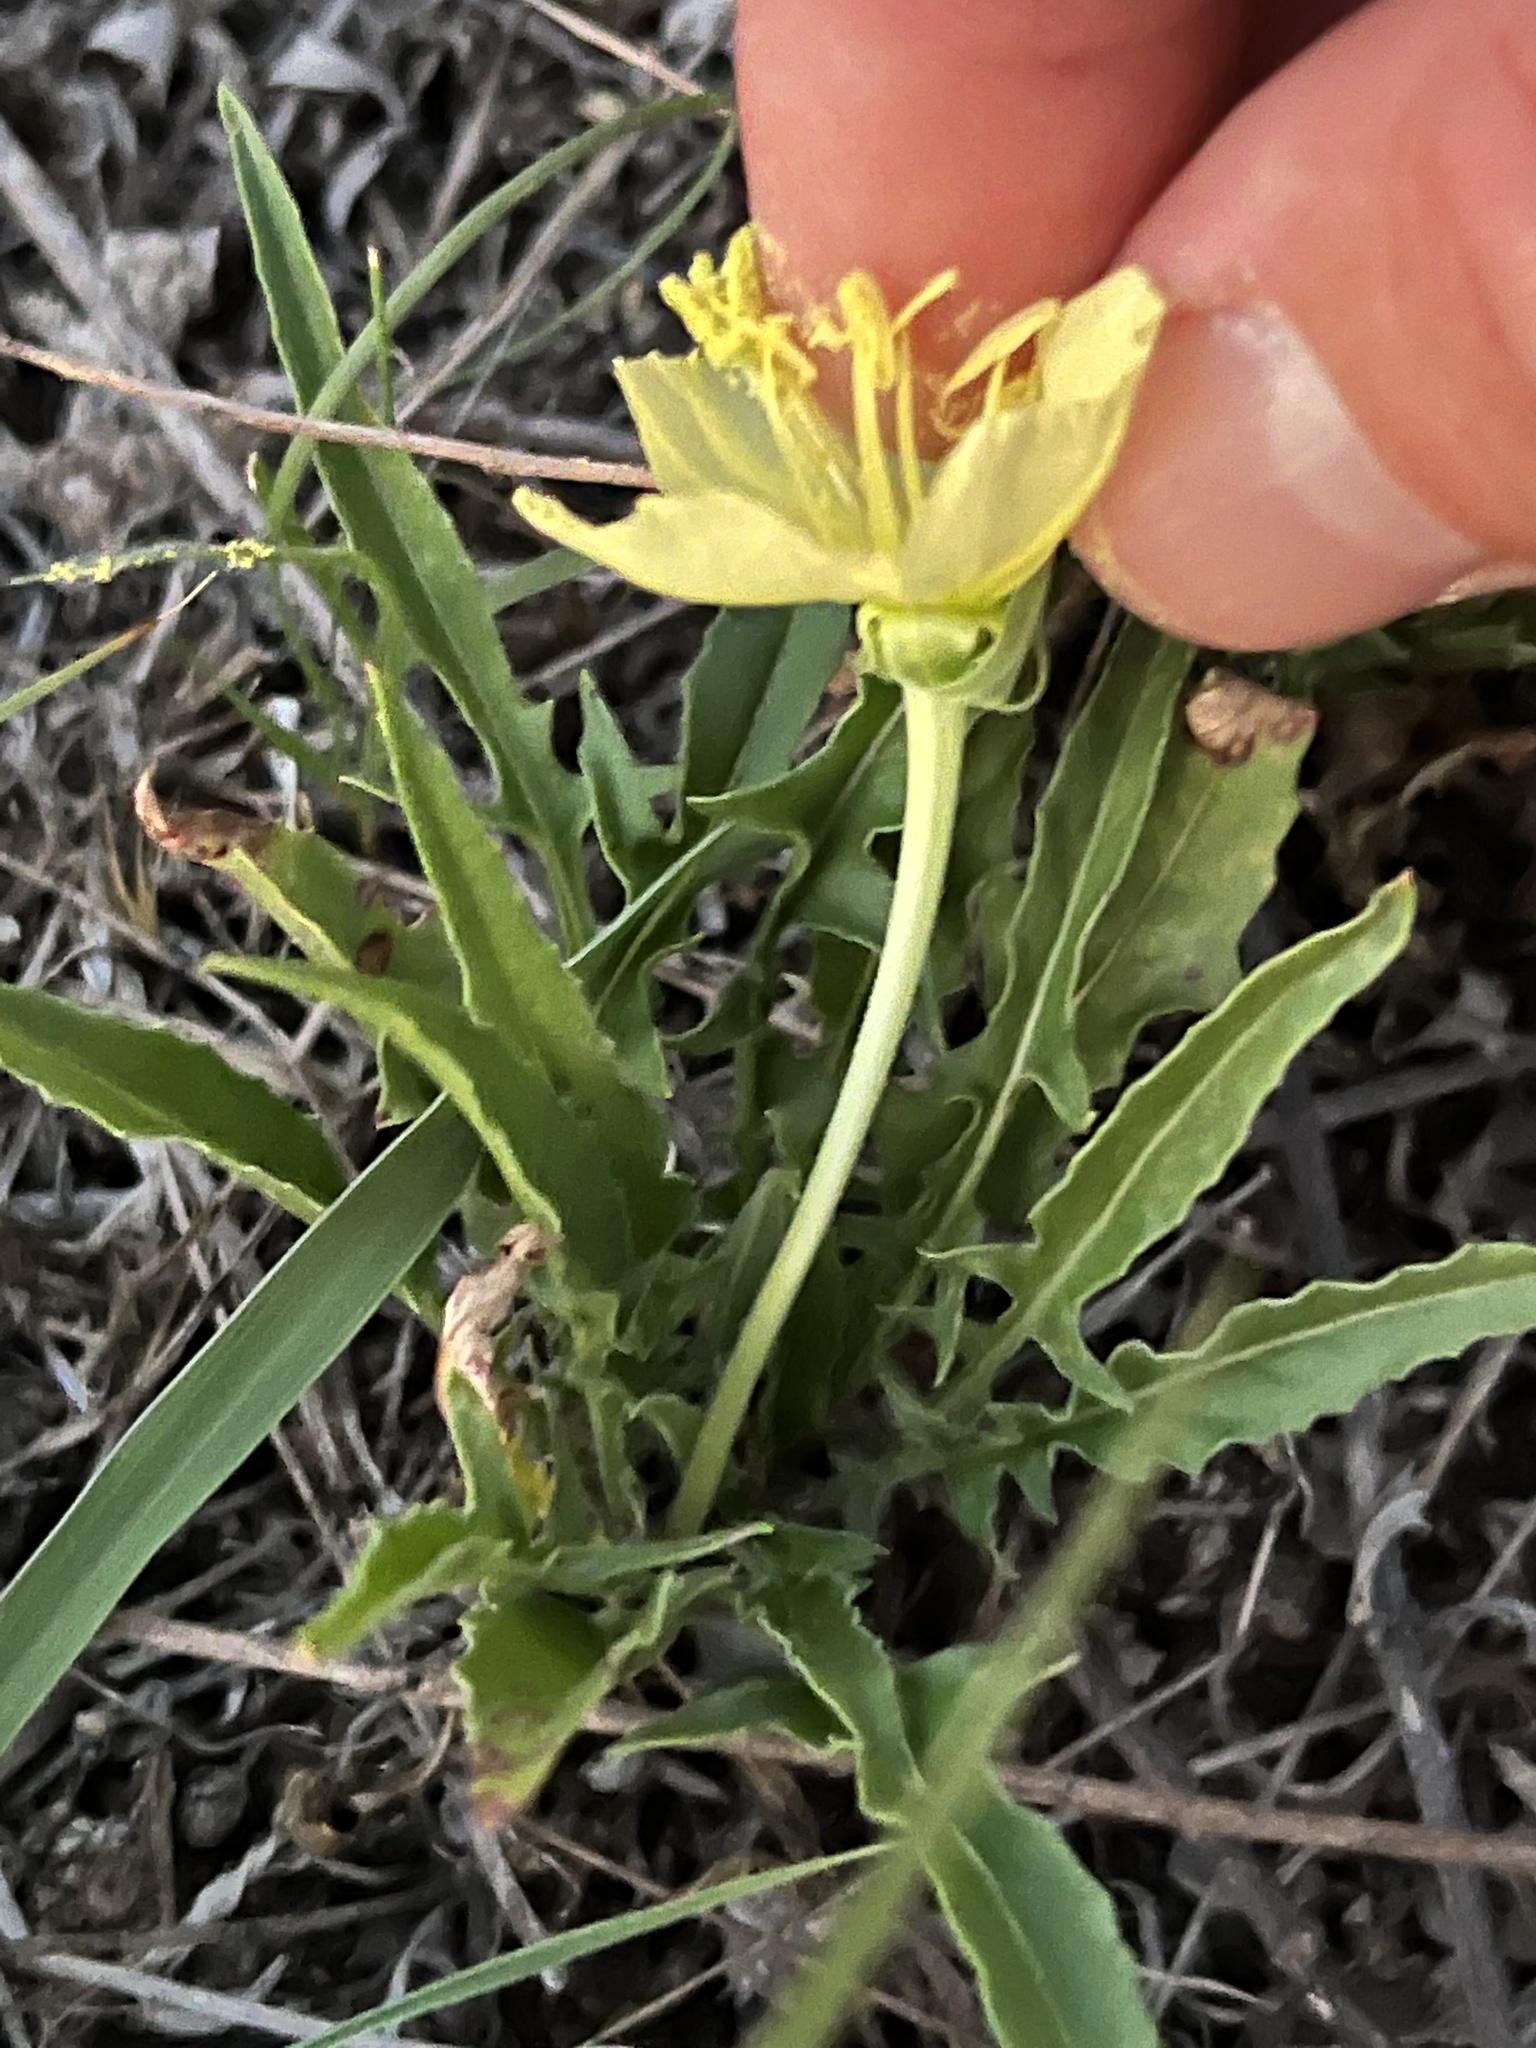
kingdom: Plantae
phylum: Tracheophyta
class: Magnoliopsida
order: Myrtales
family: Onagraceae
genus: Oenothera
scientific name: Oenothera triloba
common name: Sessile evening-primrose
